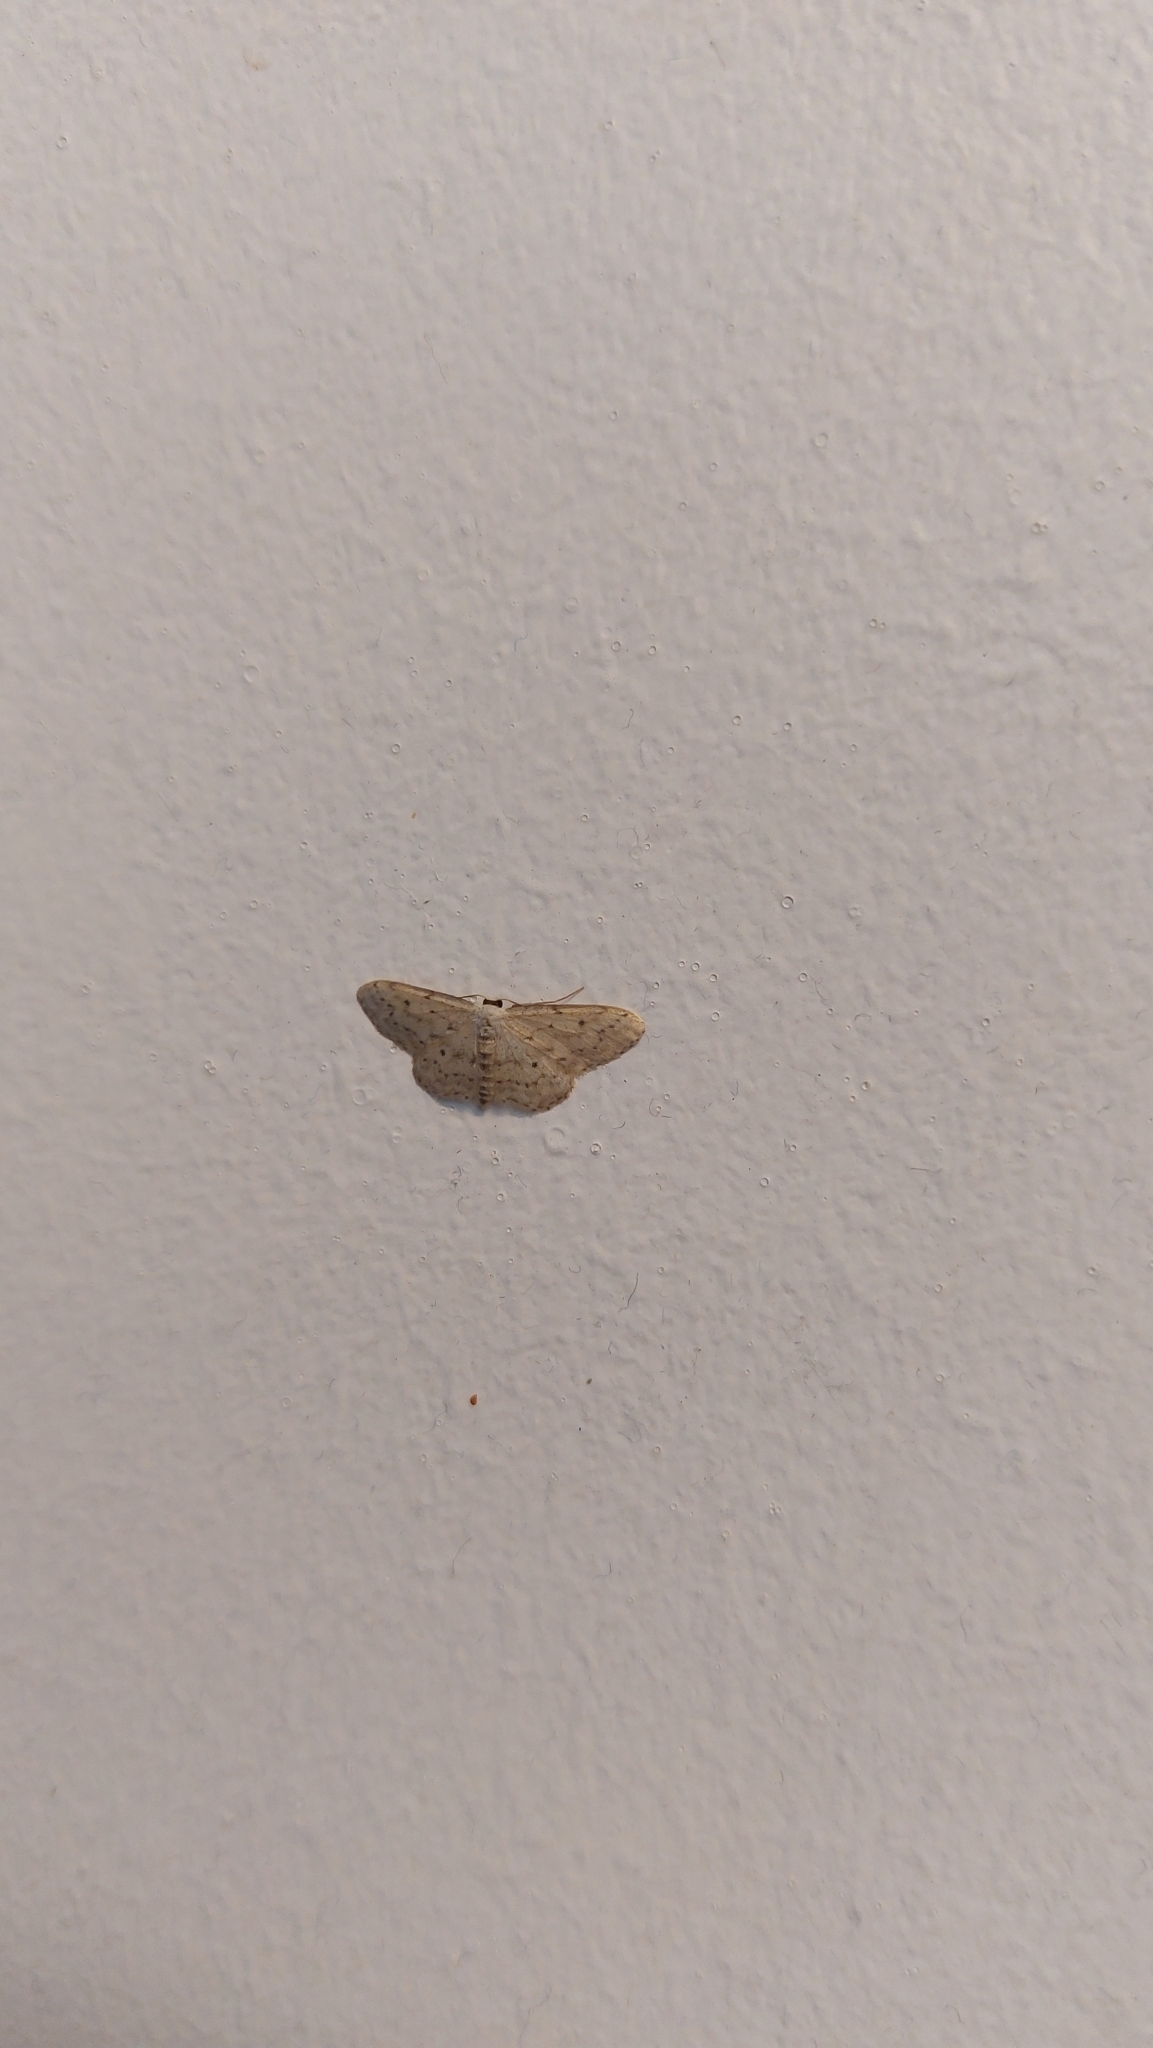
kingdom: Animalia
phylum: Arthropoda
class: Insecta
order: Lepidoptera
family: Geometridae
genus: Idaea
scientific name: Idaea seriata
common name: Small dusty wave
